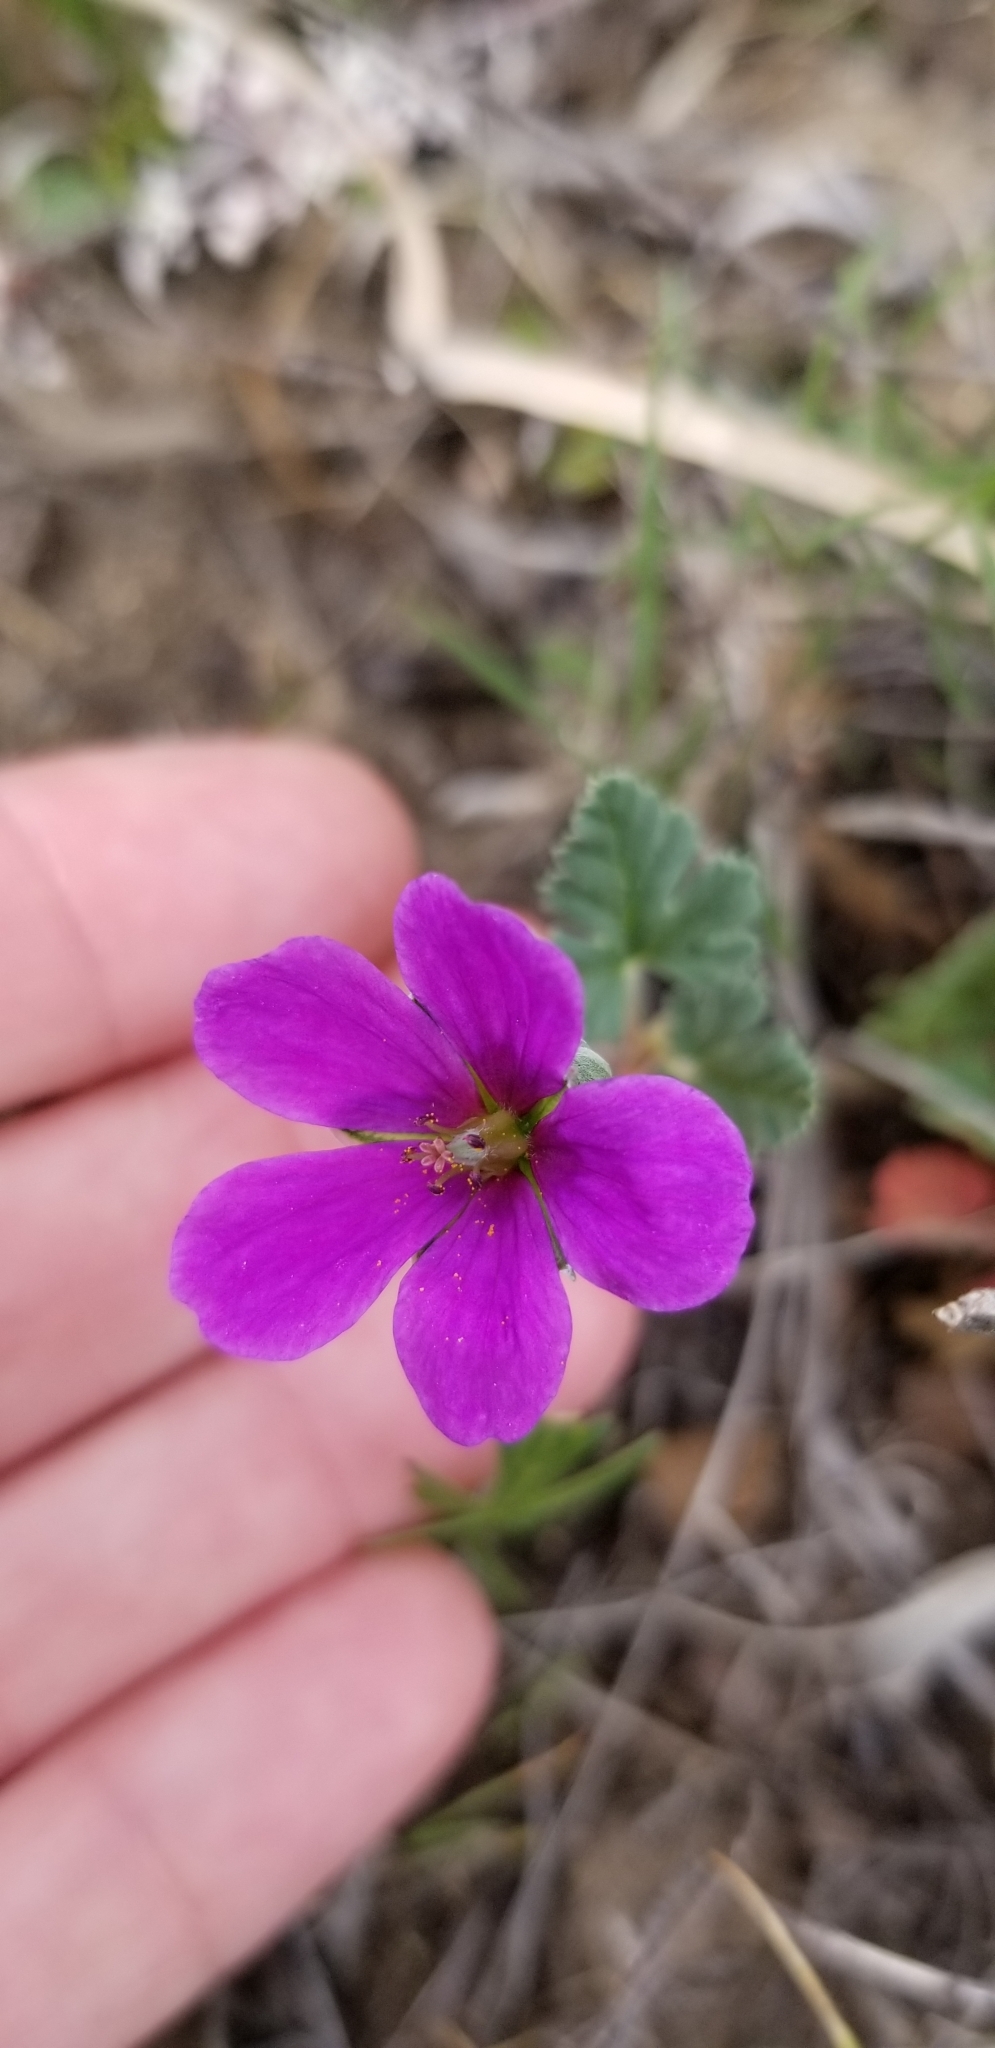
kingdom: Plantae
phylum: Tracheophyta
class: Magnoliopsida
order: Geraniales
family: Geraniaceae
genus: Erodium
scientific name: Erodium texanum
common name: Texas stork's-bill
